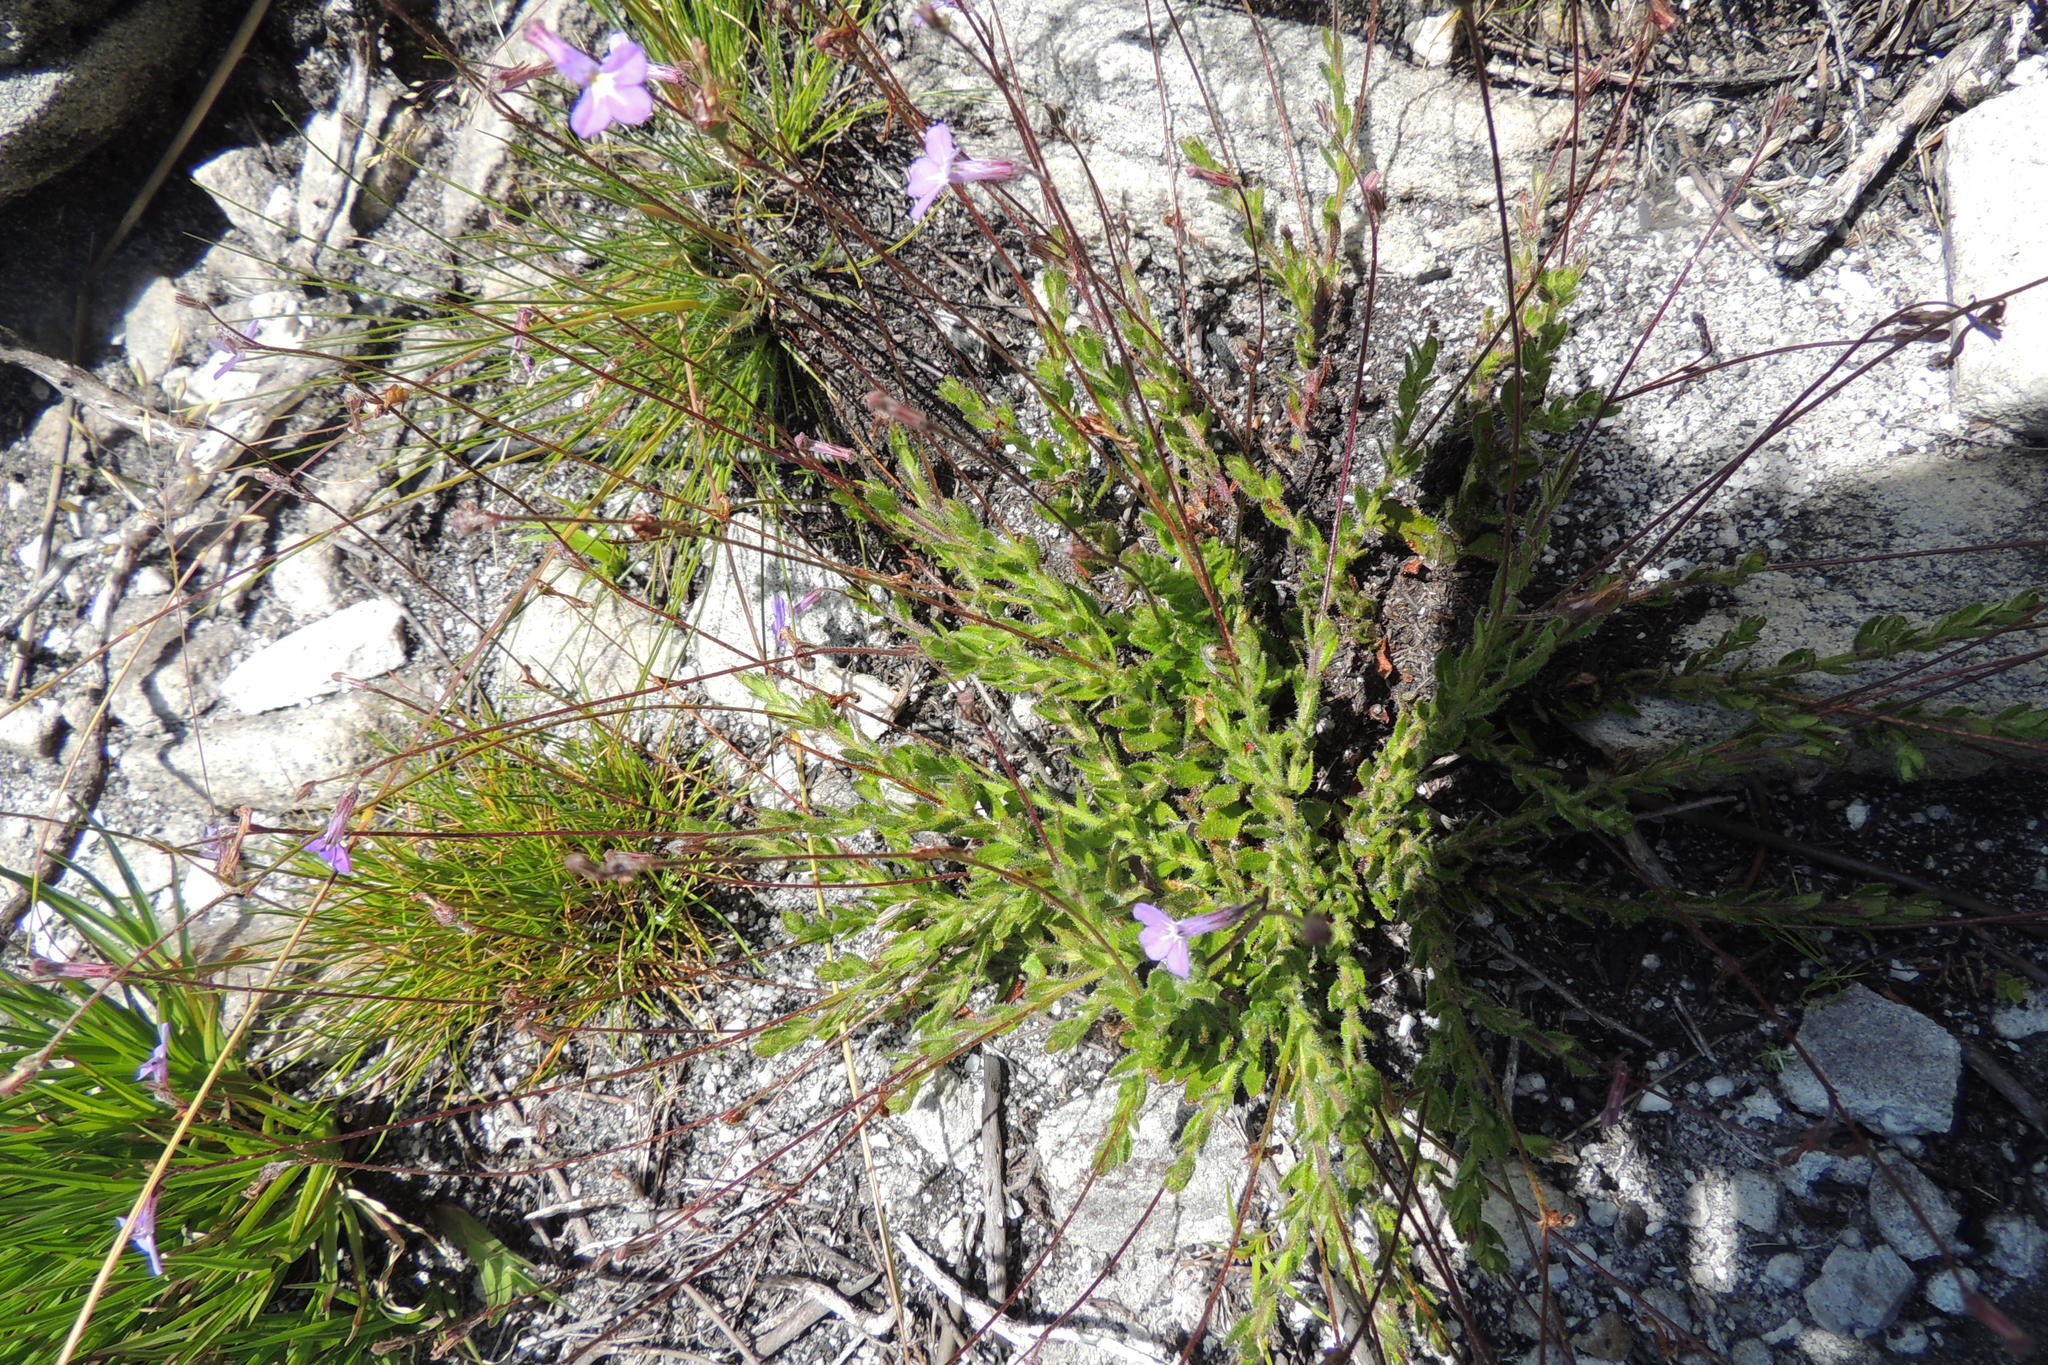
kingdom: Plantae
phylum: Tracheophyta
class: Magnoliopsida
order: Asterales
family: Campanulaceae
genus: Lobelia
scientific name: Lobelia neglecta
